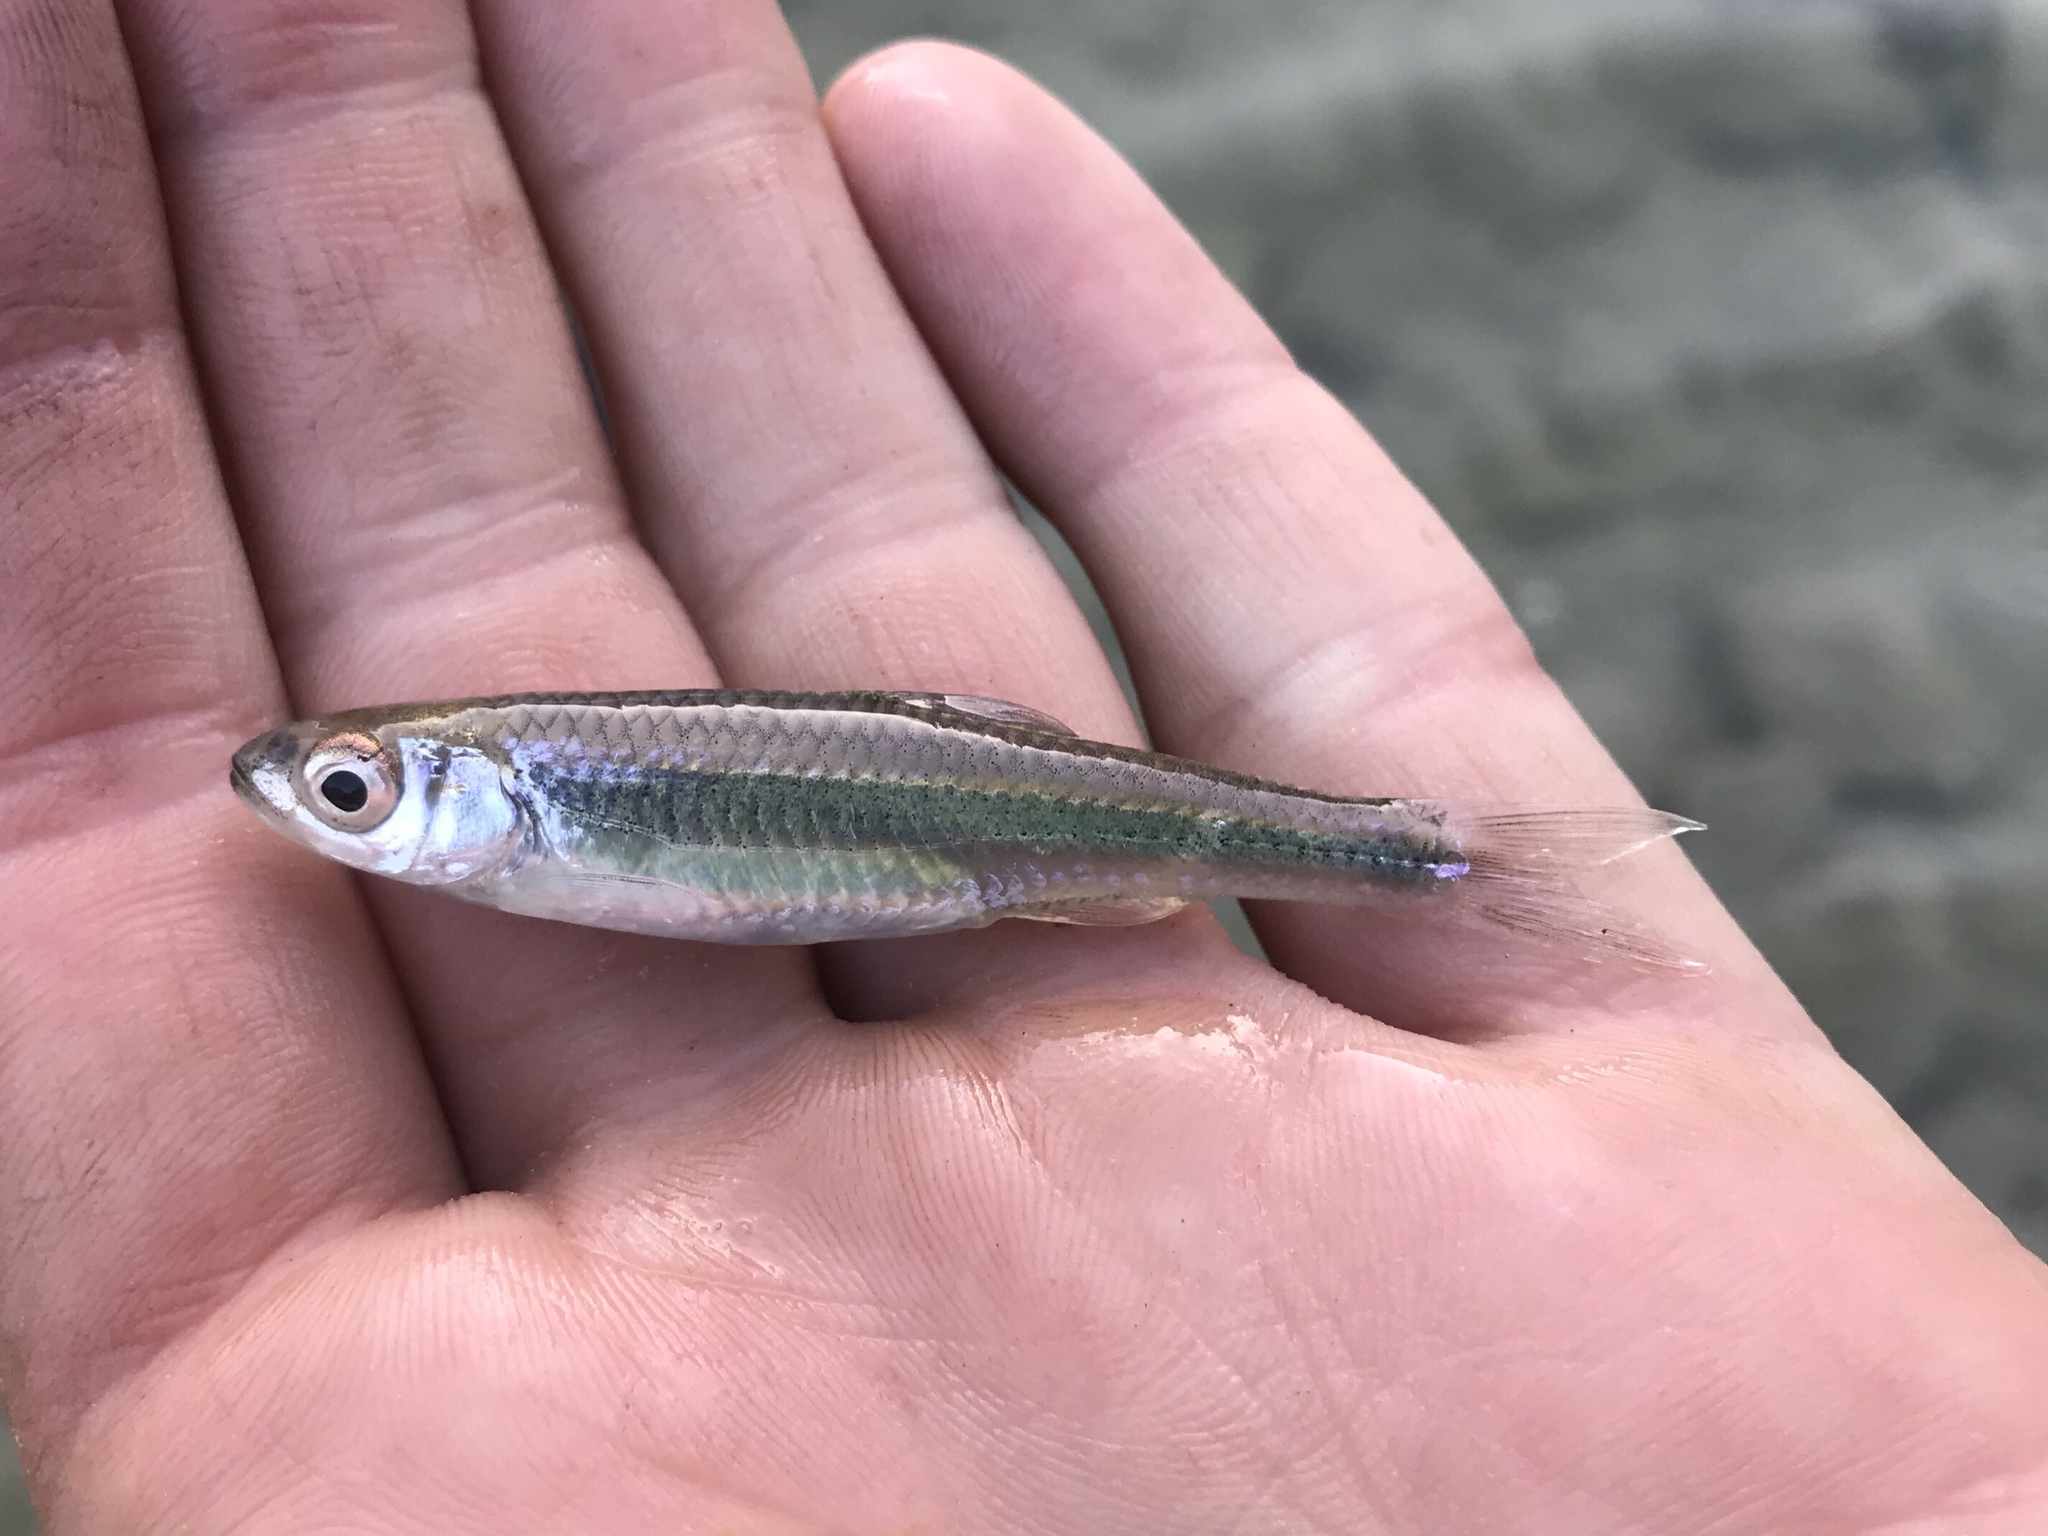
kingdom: Animalia
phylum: Chordata
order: Cypriniformes
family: Cyprinidae
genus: Notropis
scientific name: Notropis amabilis
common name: Texas shiner
